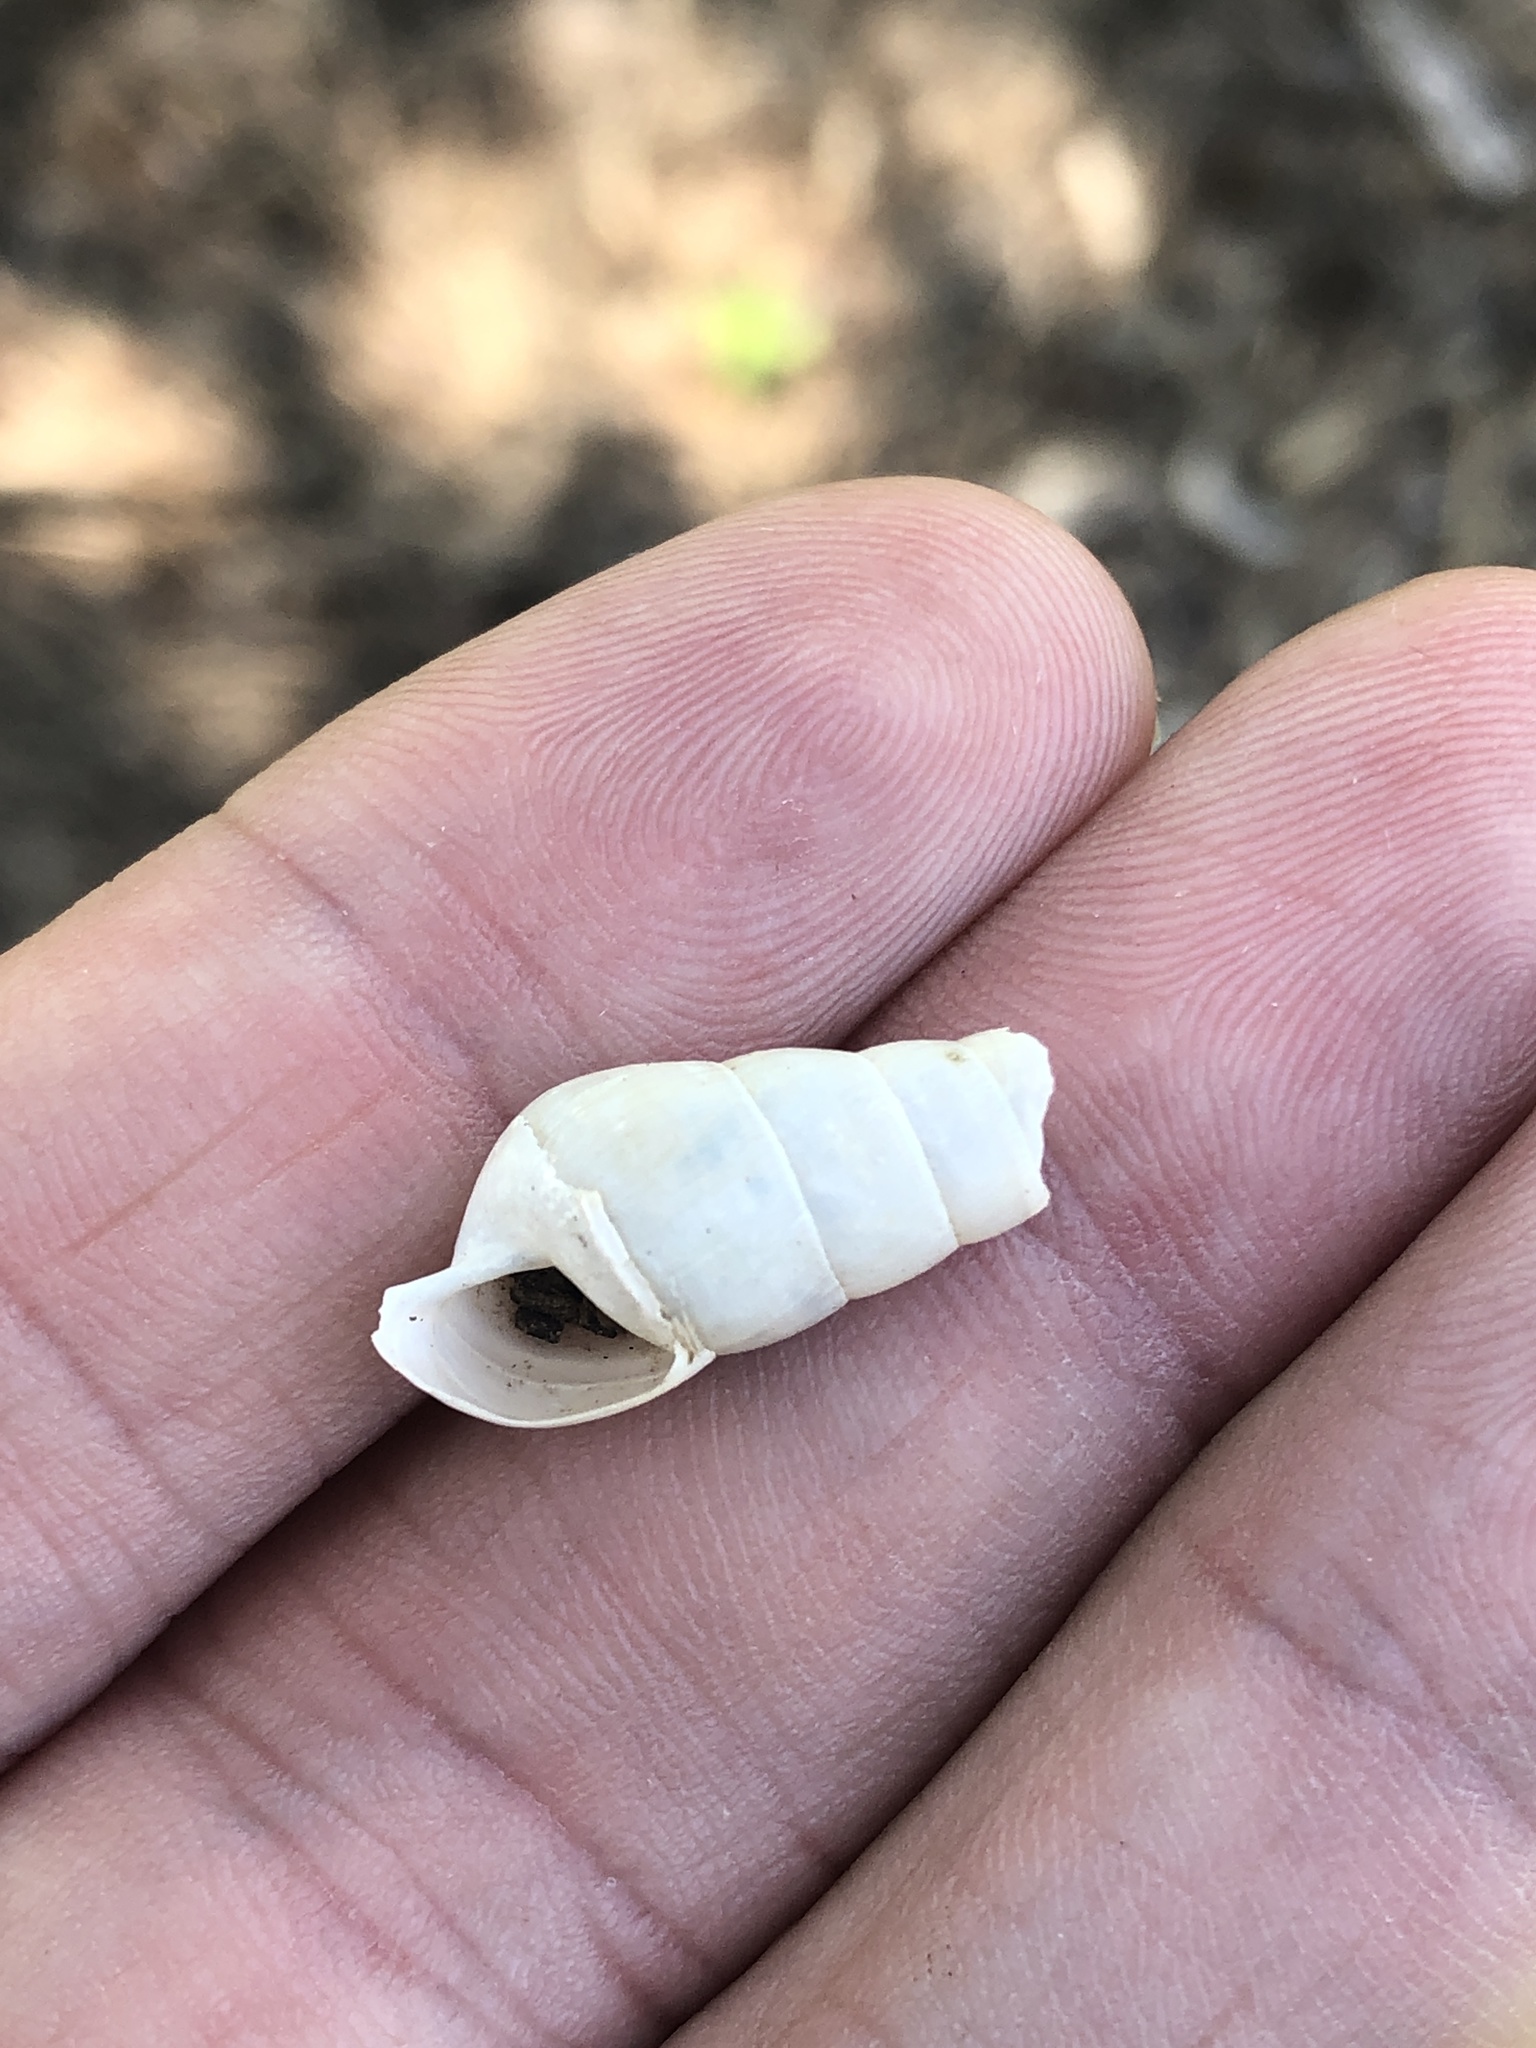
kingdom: Animalia
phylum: Mollusca
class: Gastropoda
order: Stylommatophora
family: Achatinidae
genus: Rumina
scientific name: Rumina decollata
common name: Decollate snail
